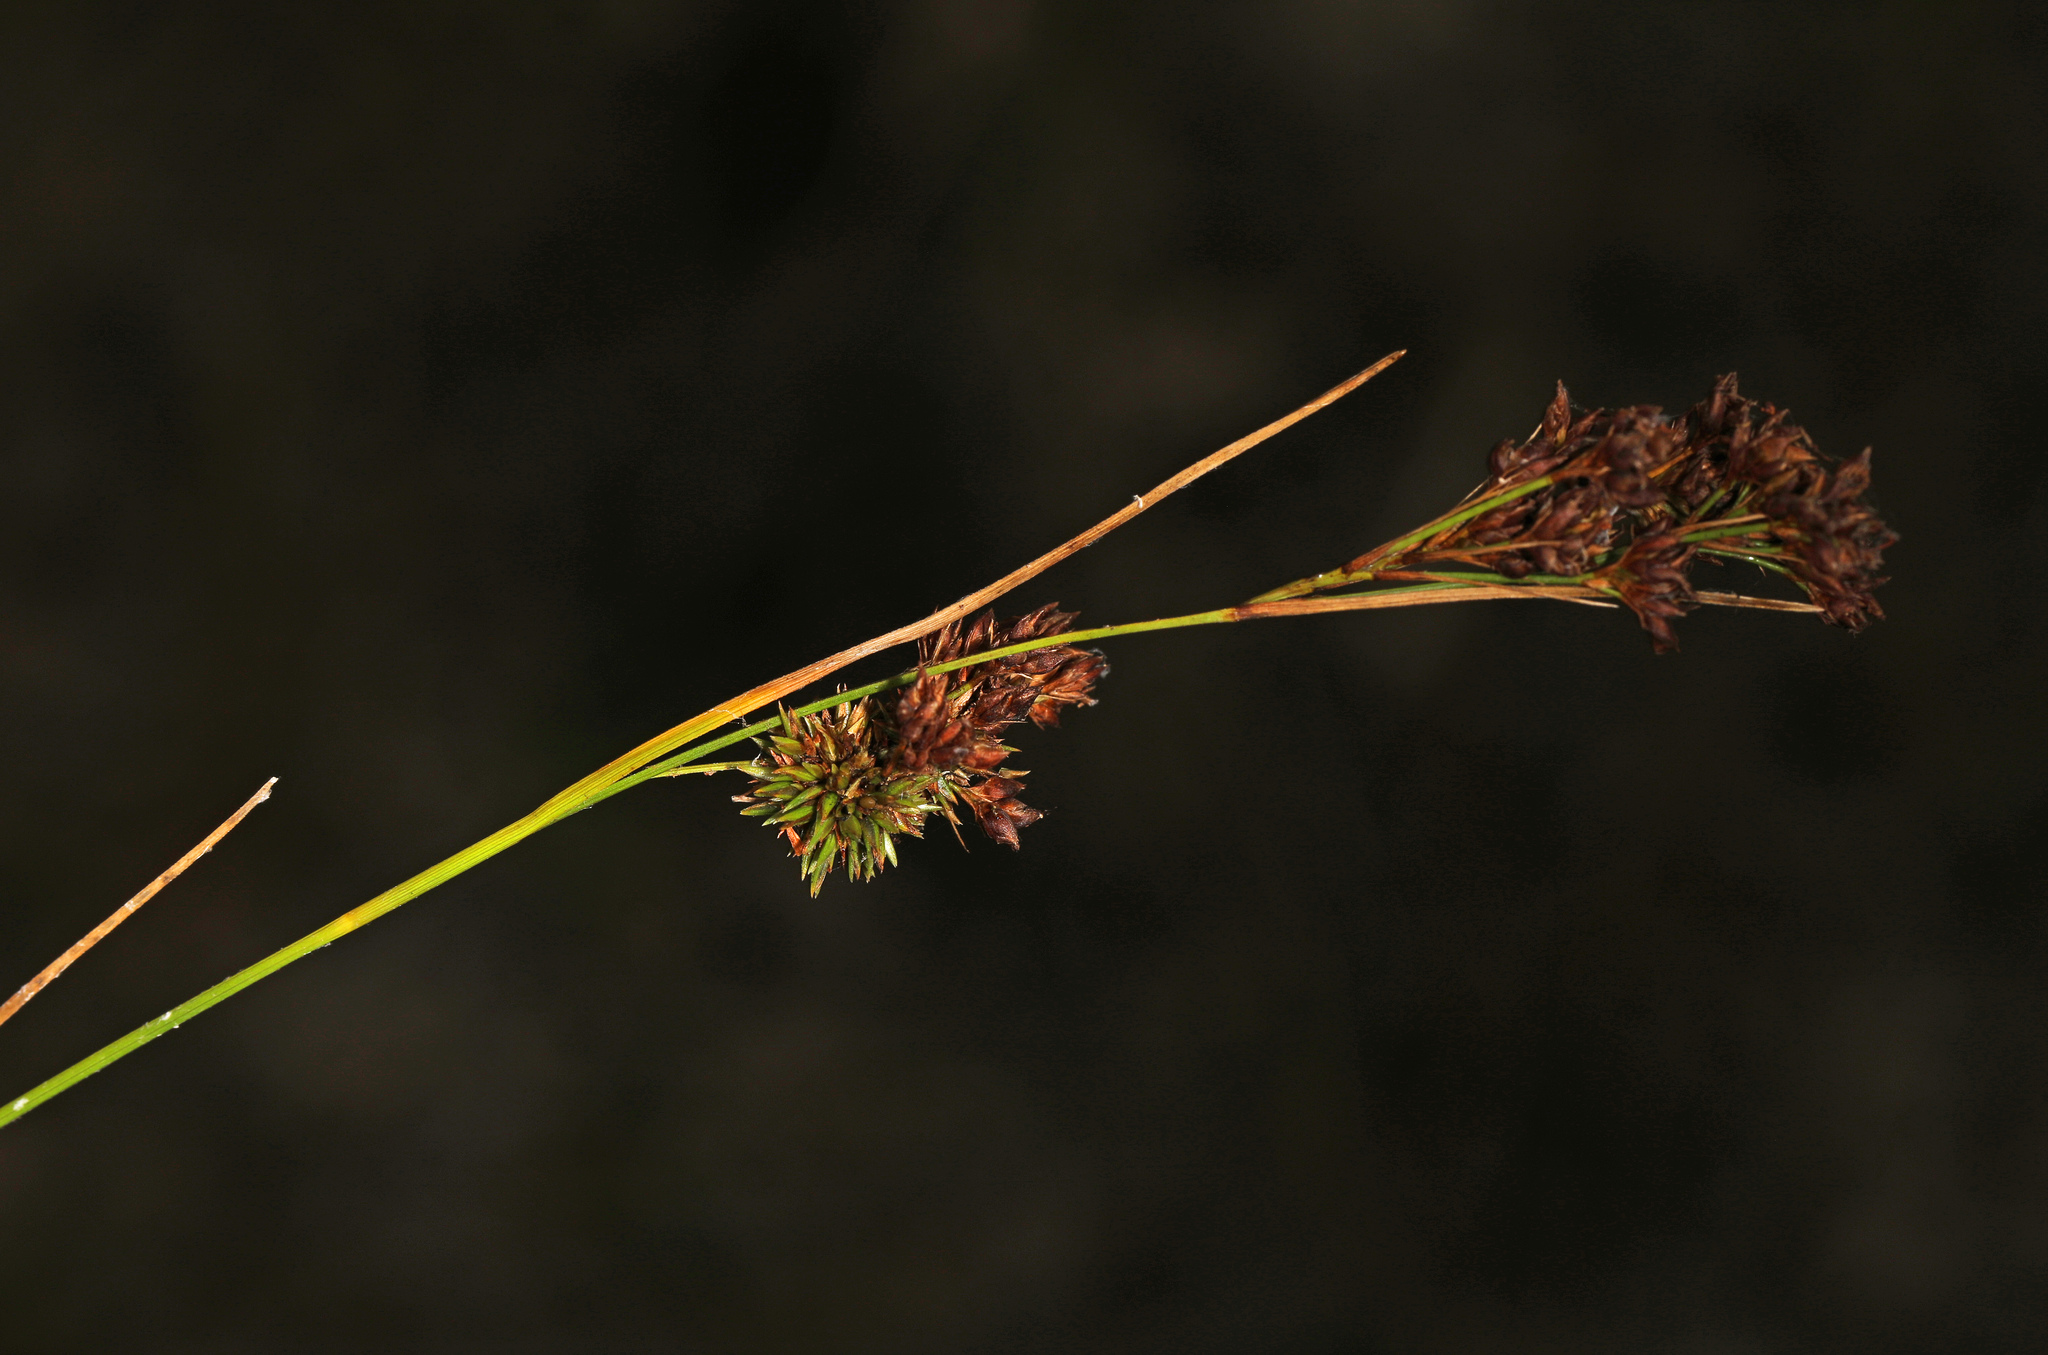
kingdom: Plantae
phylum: Tracheophyta
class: Liliopsida
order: Poales
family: Cyperaceae
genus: Rhynchospora
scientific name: Rhynchospora microcarpa
